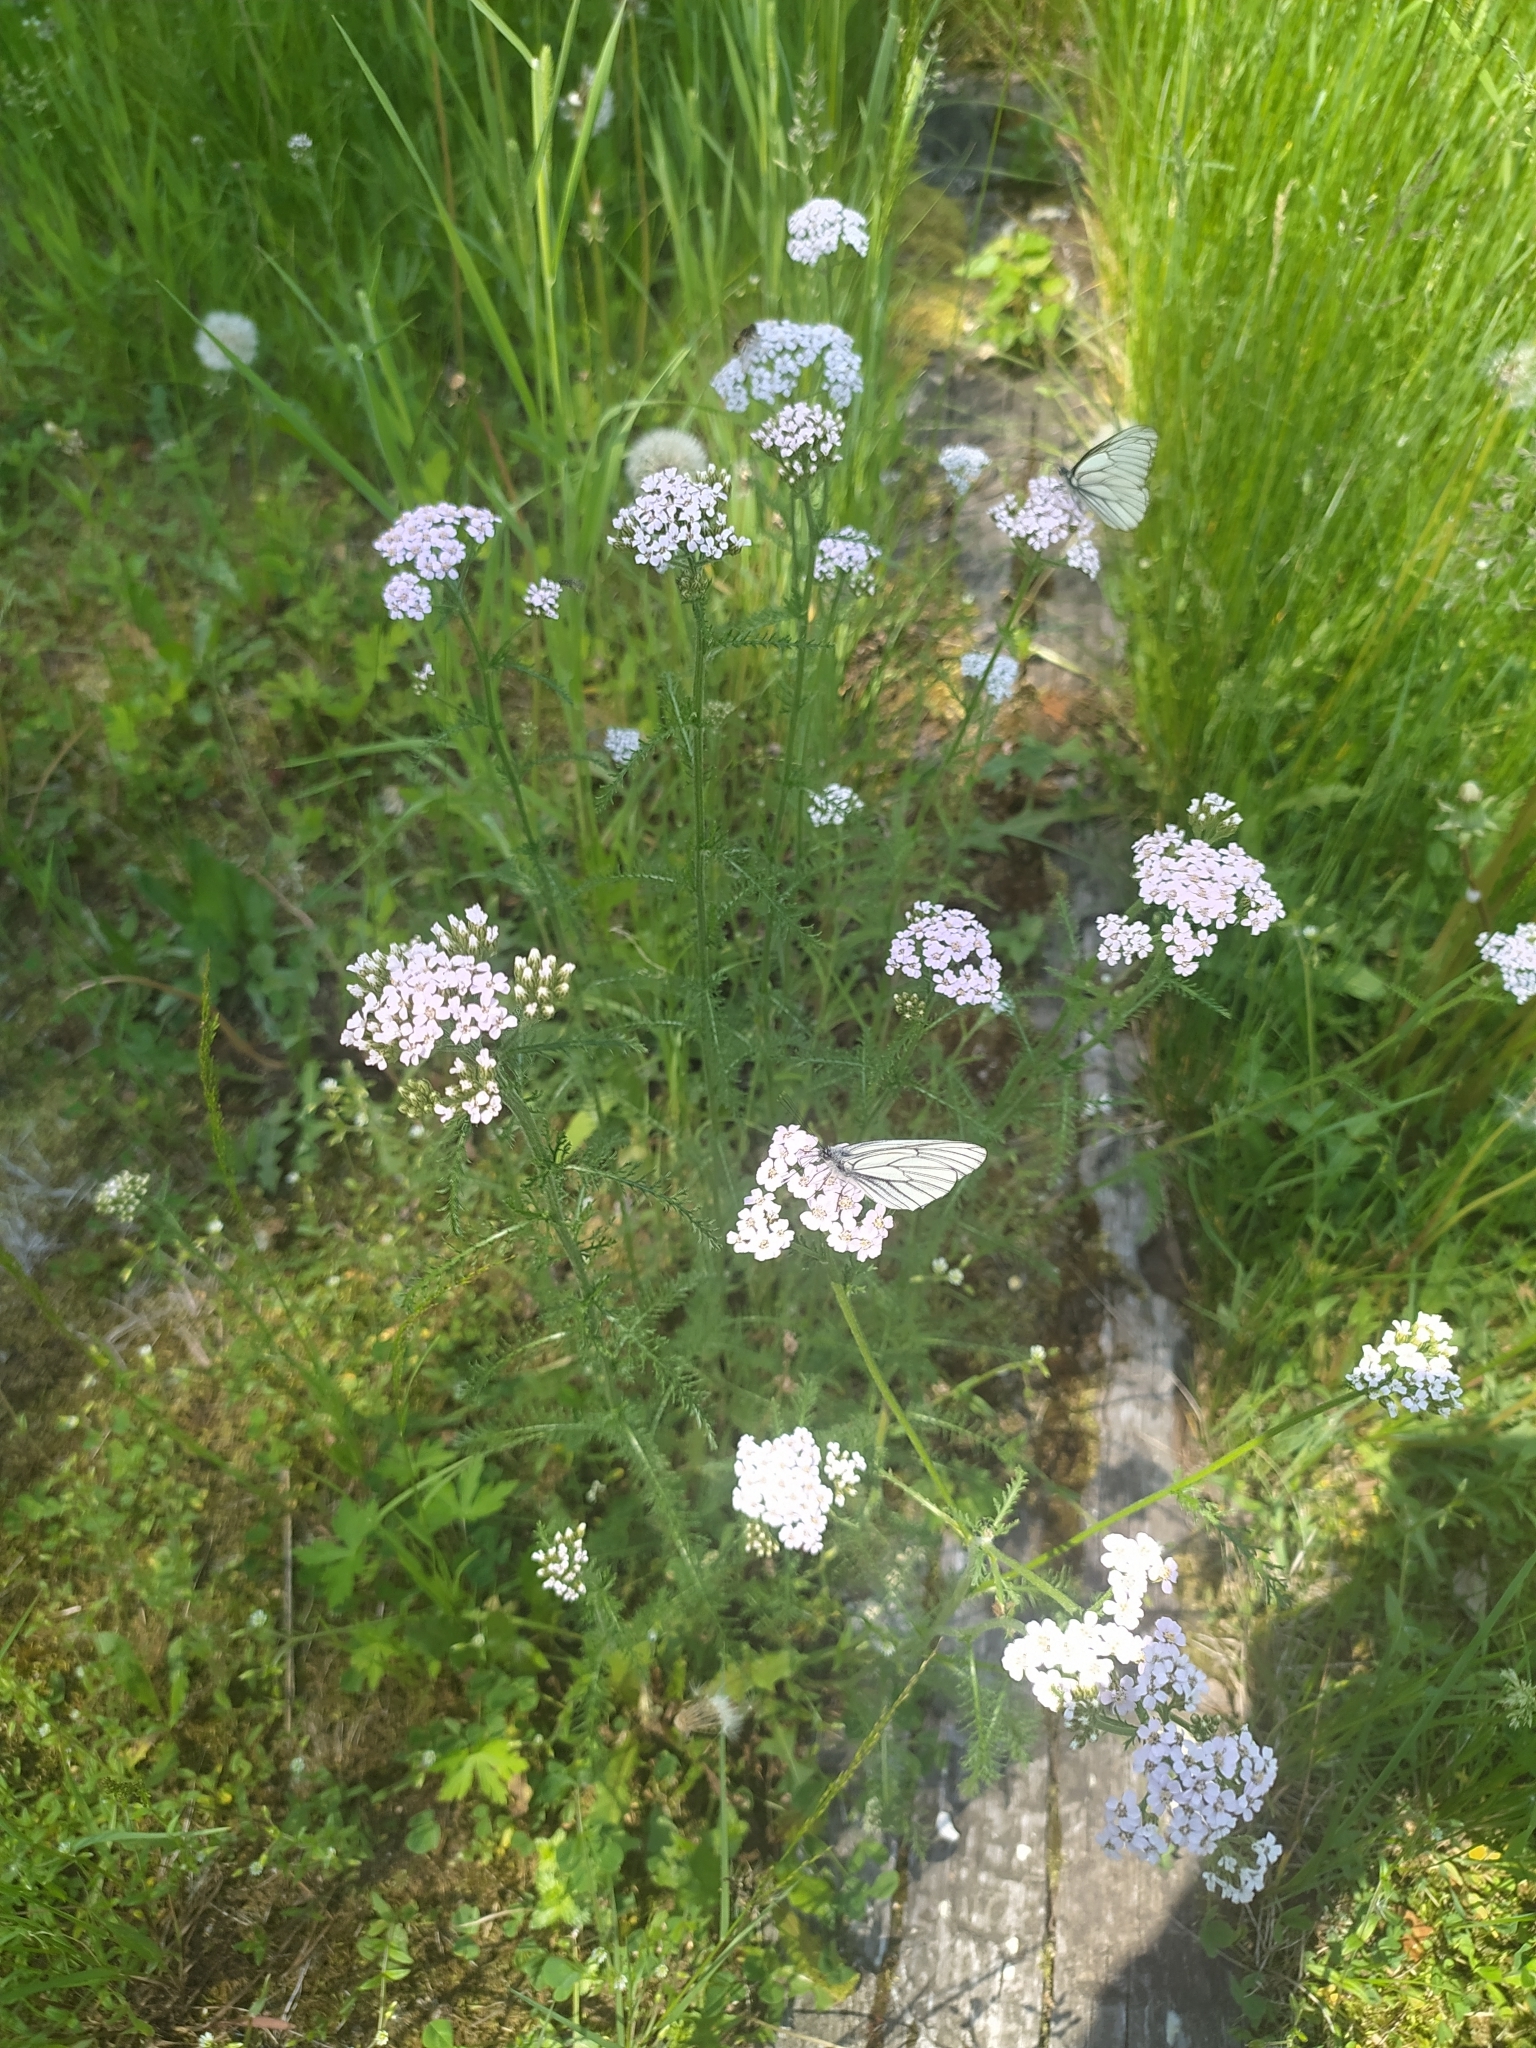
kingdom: Plantae
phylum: Tracheophyta
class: Magnoliopsida
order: Asterales
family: Asteraceae
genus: Achillea
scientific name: Achillea millefolium
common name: Yarrow
